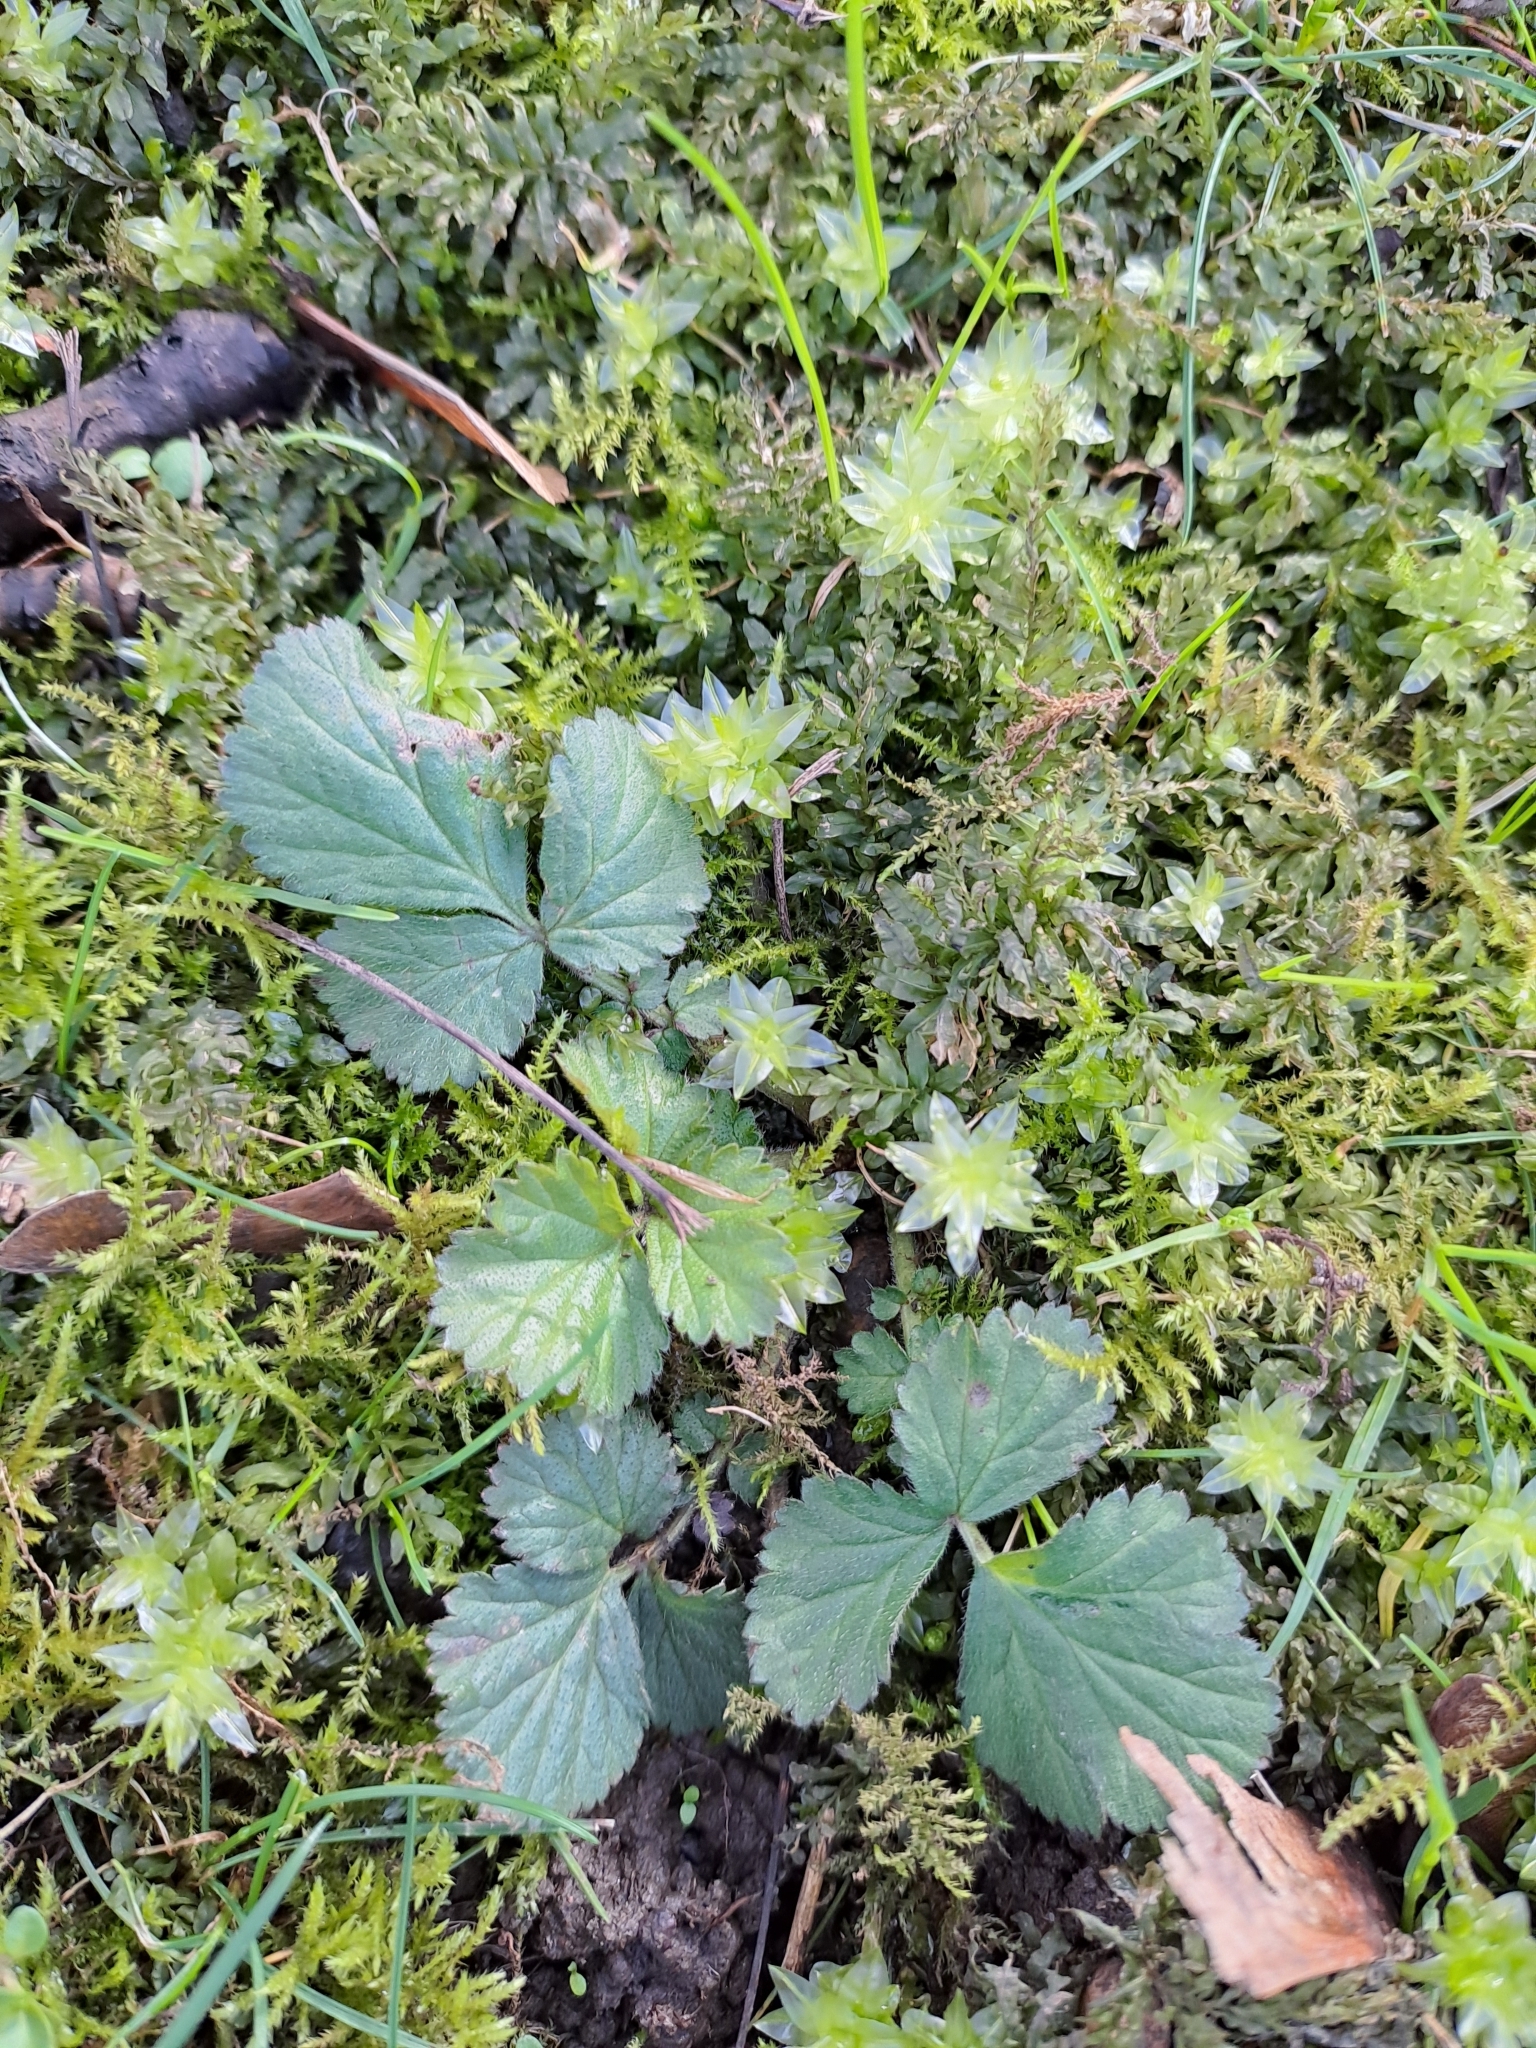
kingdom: Plantae
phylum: Tracheophyta
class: Magnoliopsida
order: Rosales
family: Rosaceae
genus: Geum
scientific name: Geum urbanum
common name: Wood avens
